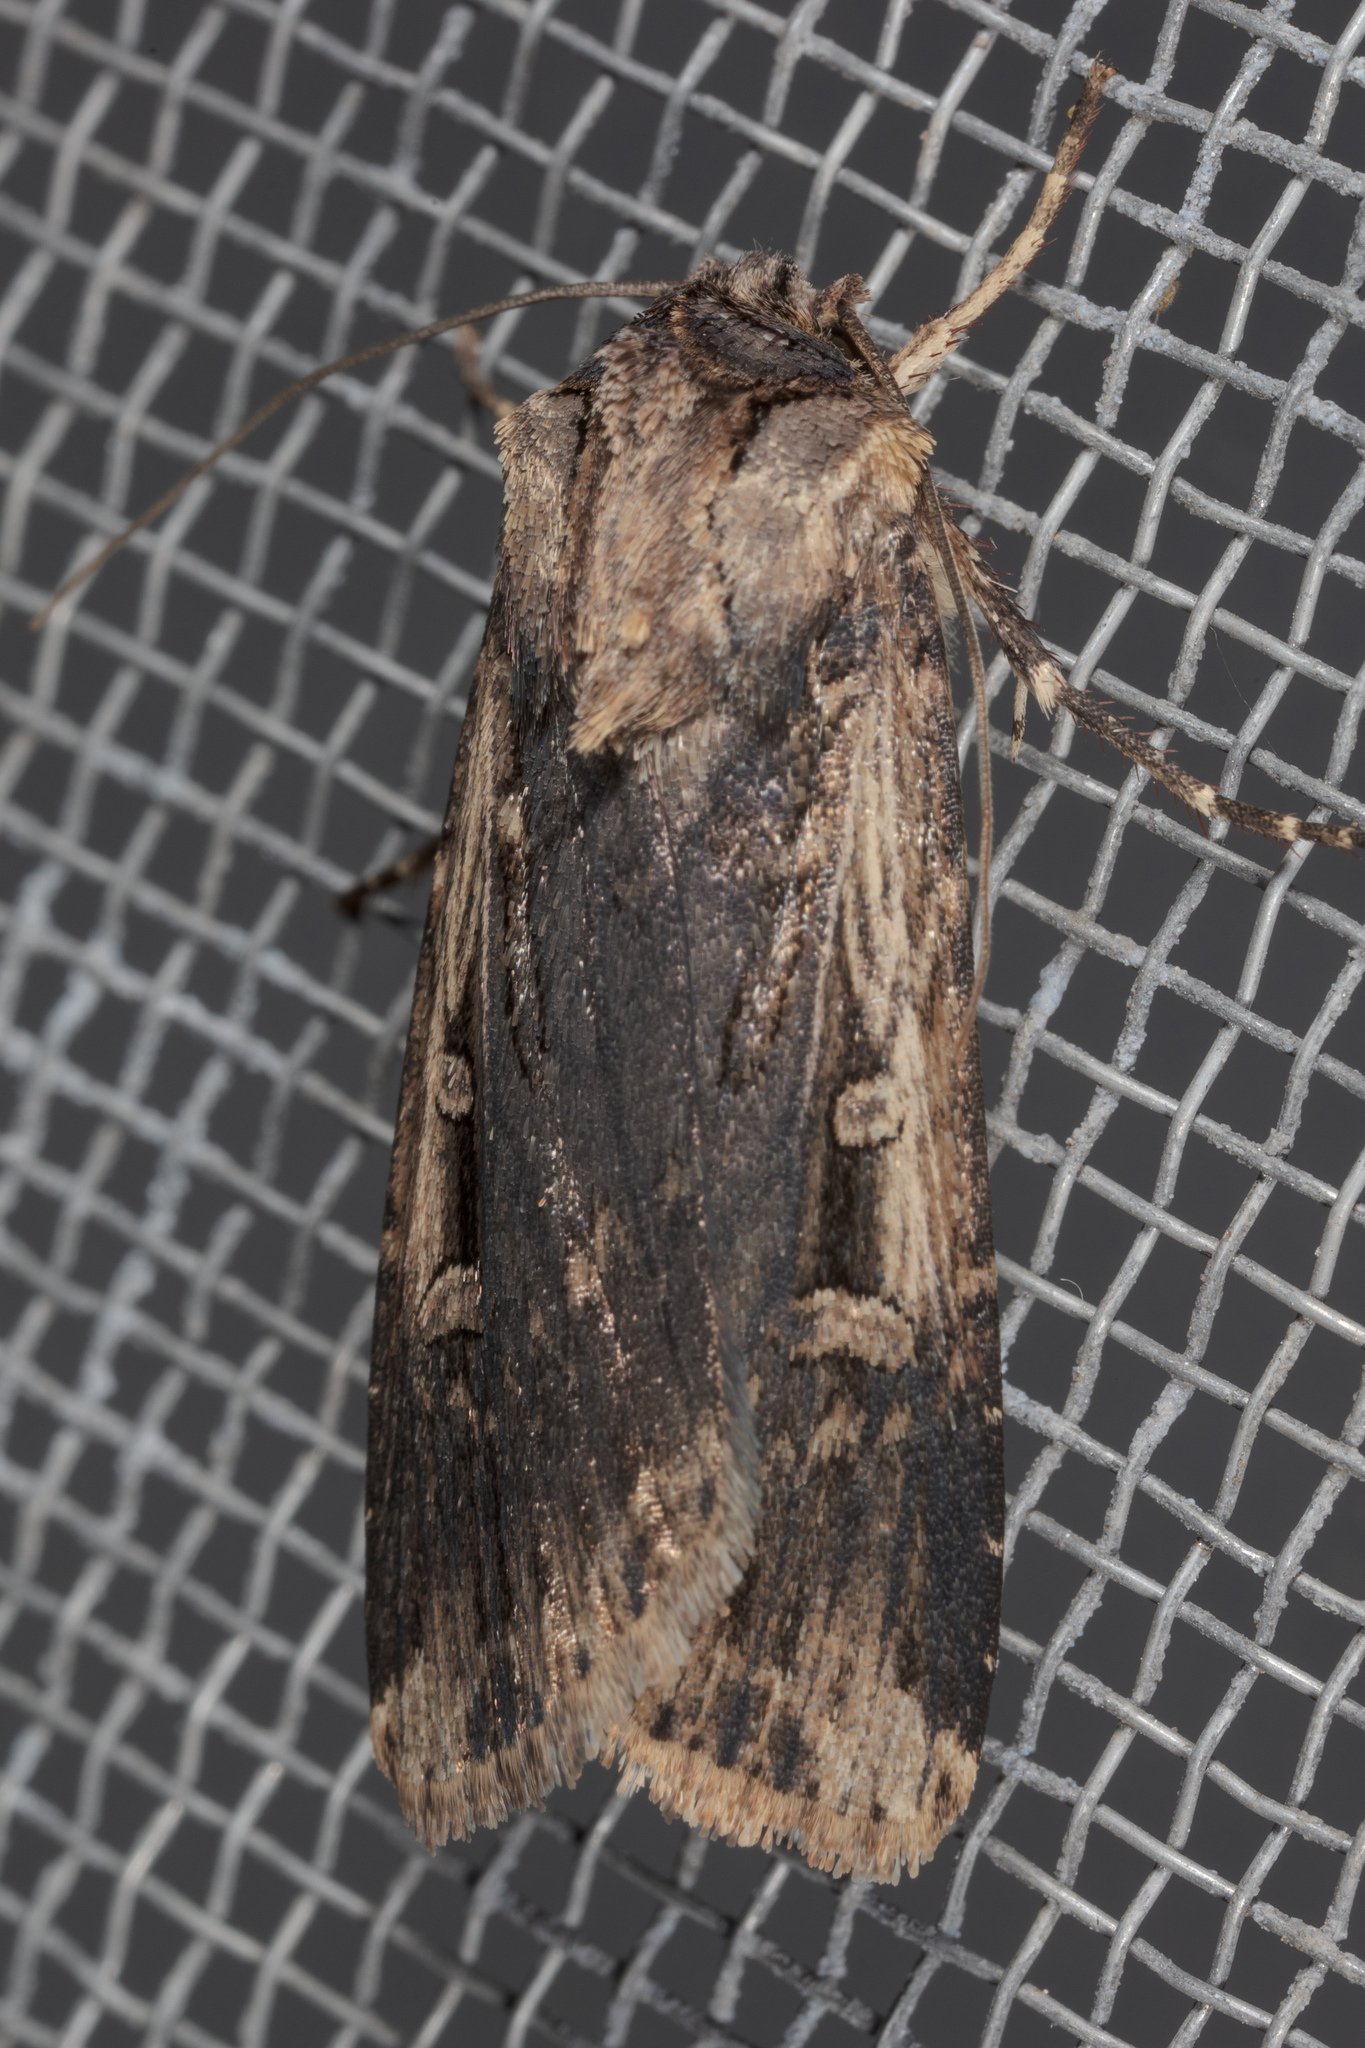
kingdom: Animalia
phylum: Arthropoda
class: Insecta
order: Lepidoptera
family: Noctuidae
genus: Feltia
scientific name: Feltia subterranea
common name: Granulate cutworm
